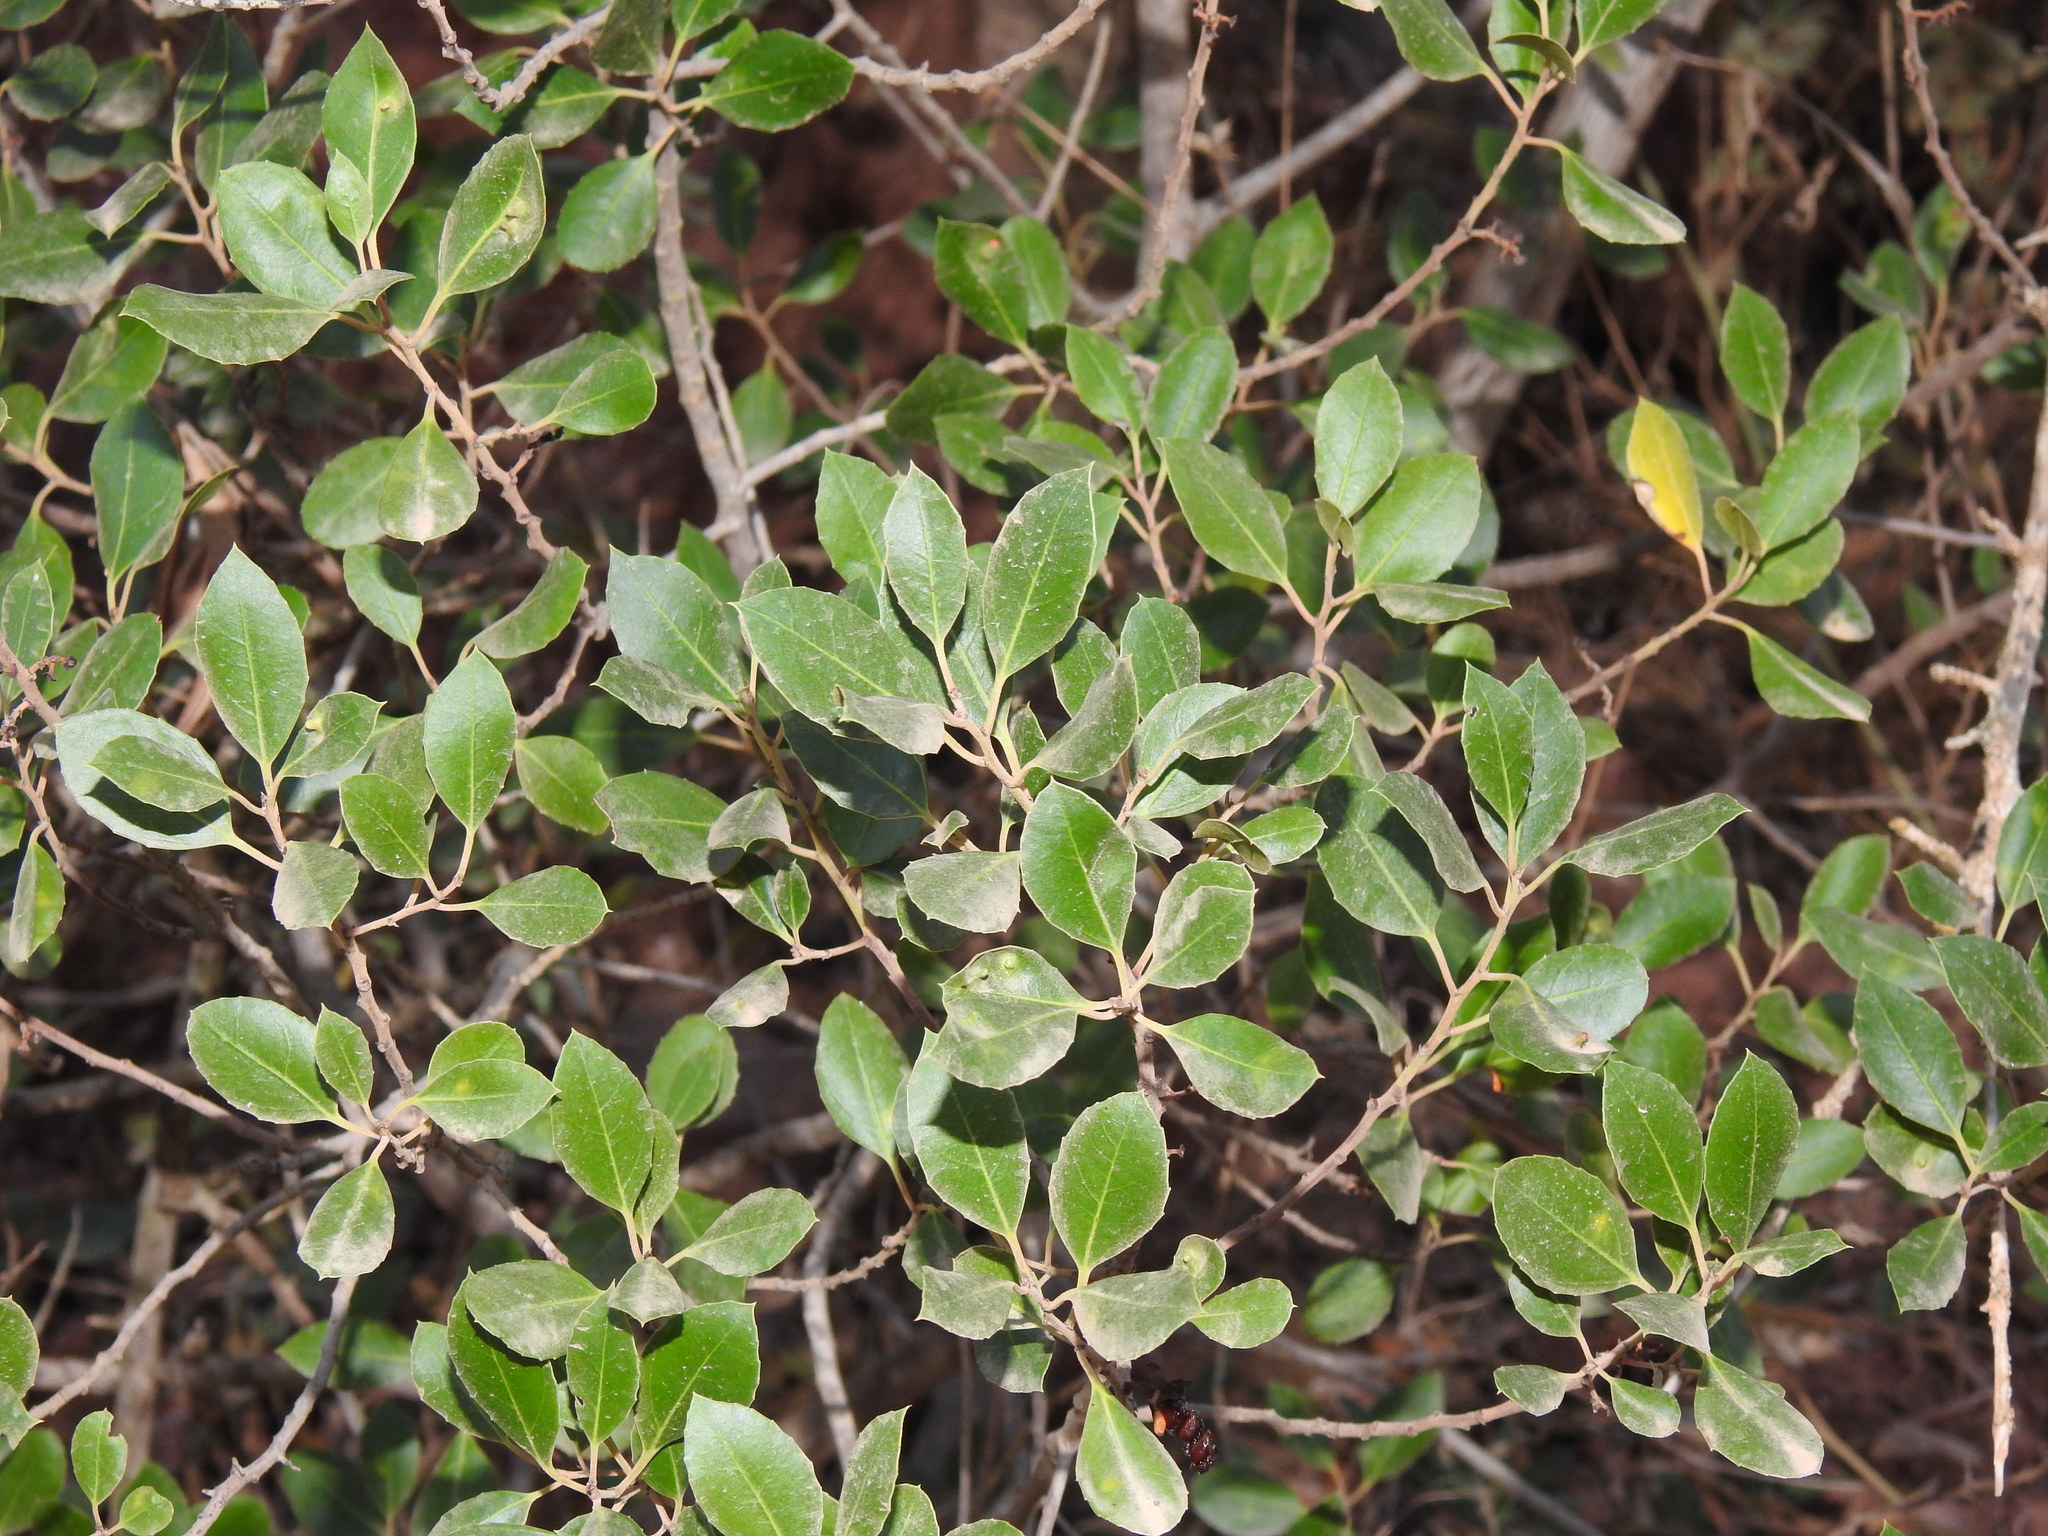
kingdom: Plantae
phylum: Tracheophyta
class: Magnoliopsida
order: Rosales
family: Rhamnaceae
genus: Rhamnus
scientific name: Rhamnus alaternus
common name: Mediterranean buckthorn
